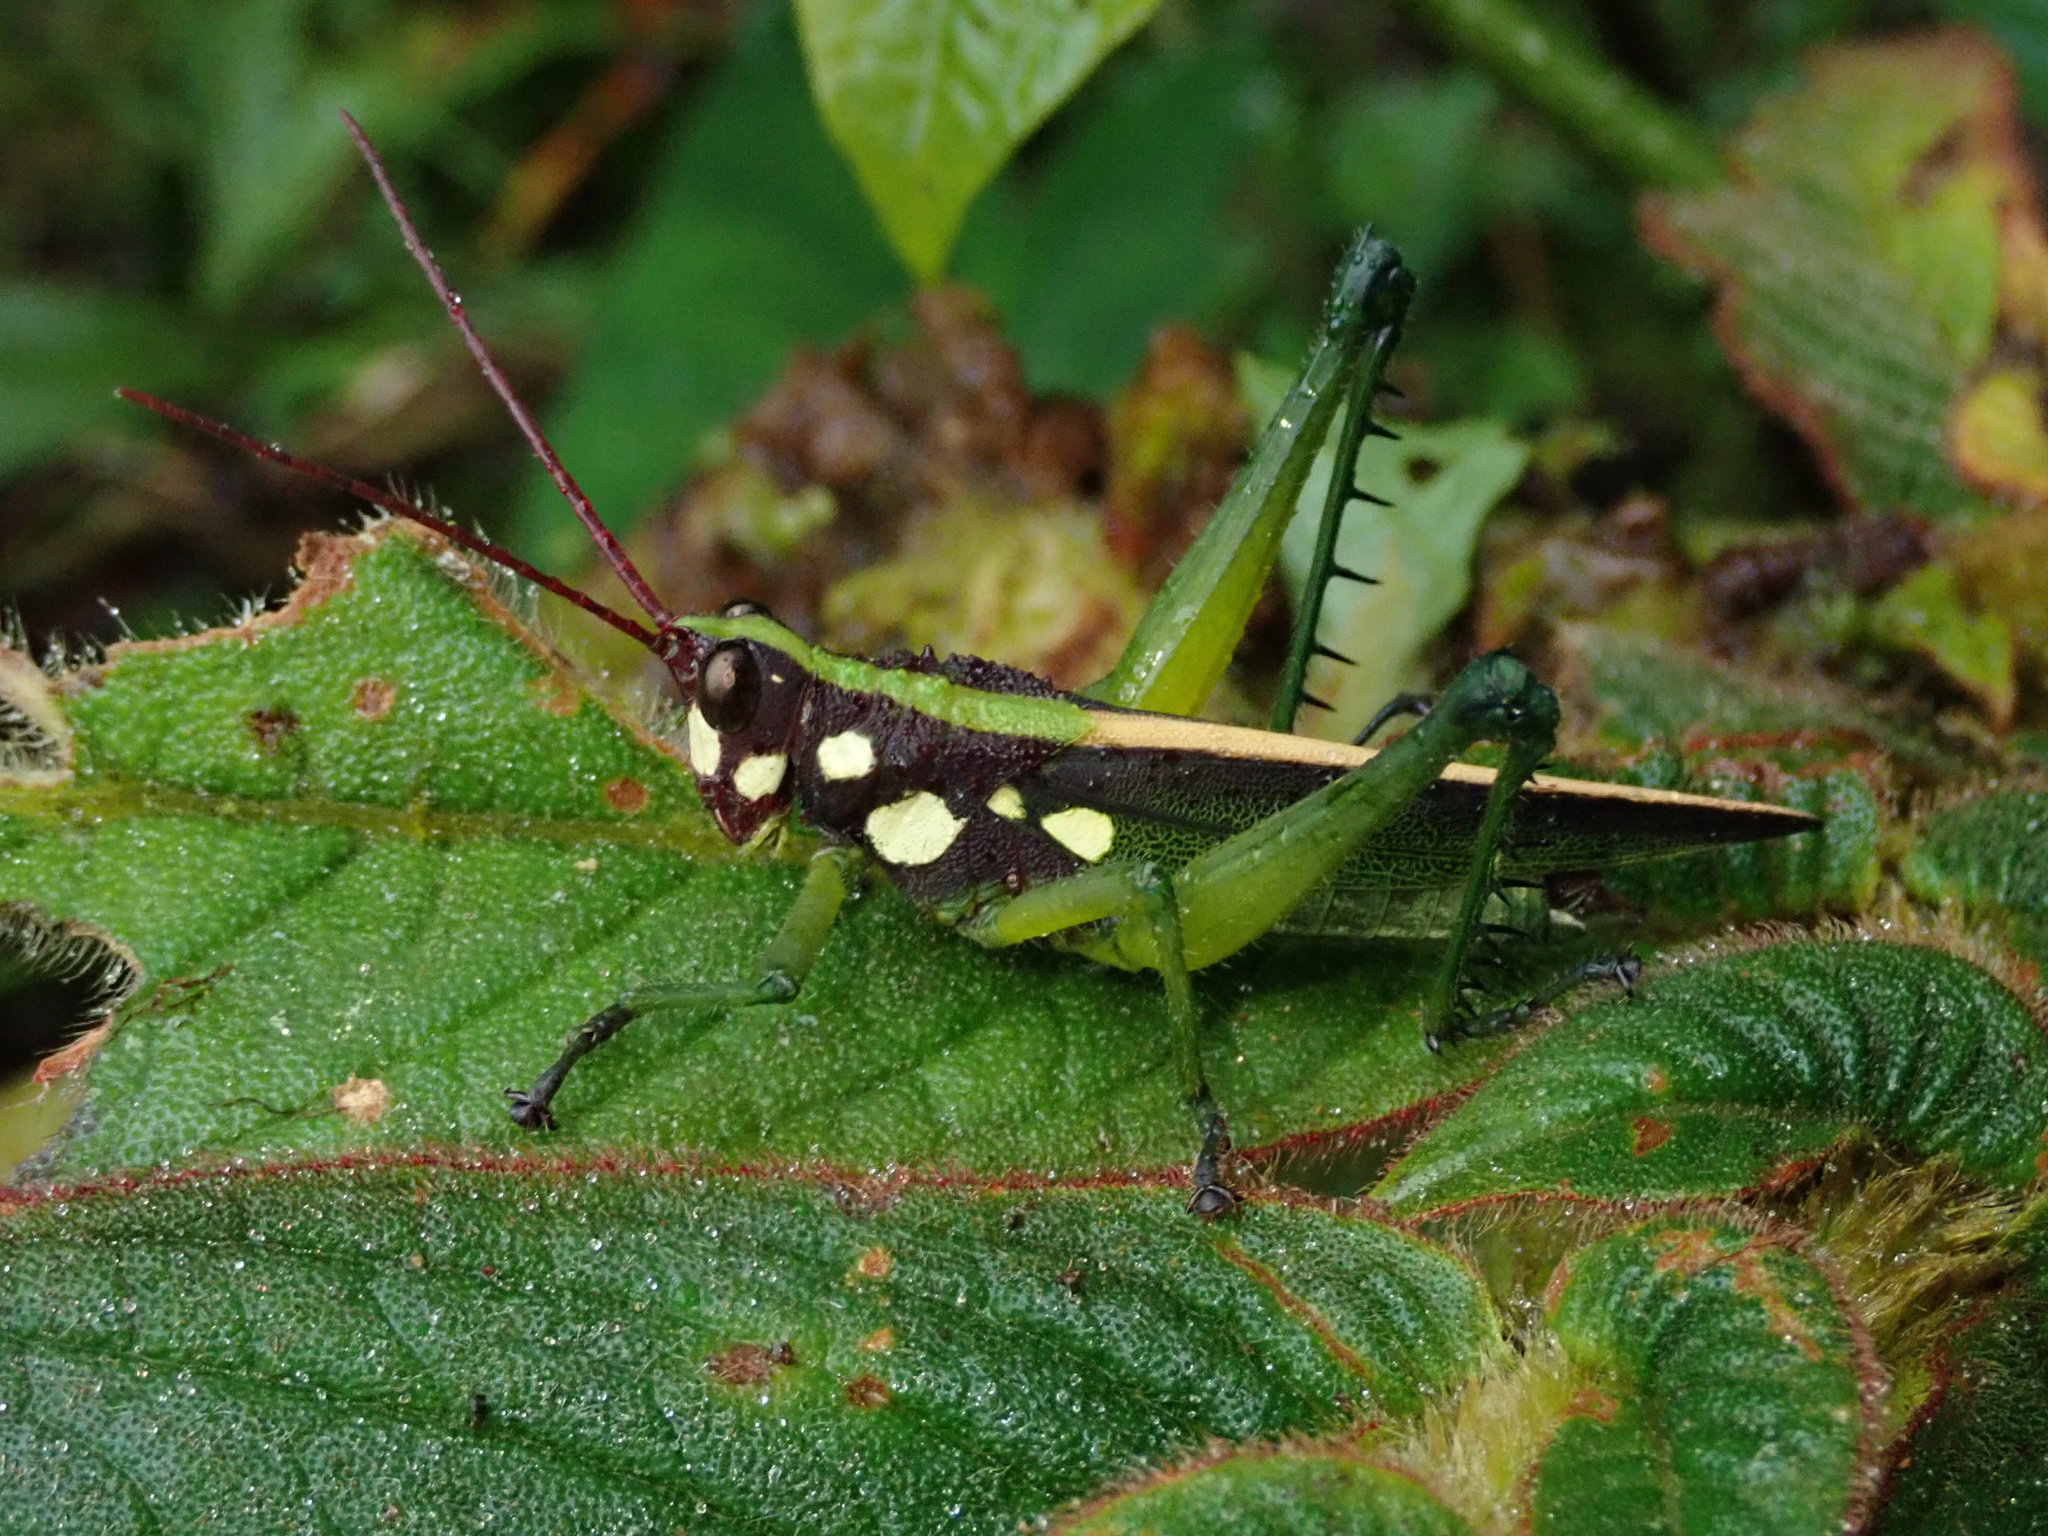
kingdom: Animalia
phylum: Arthropoda
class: Insecta
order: Orthoptera
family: Romaleidae
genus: Agriacris
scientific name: Agriacris magnifica
